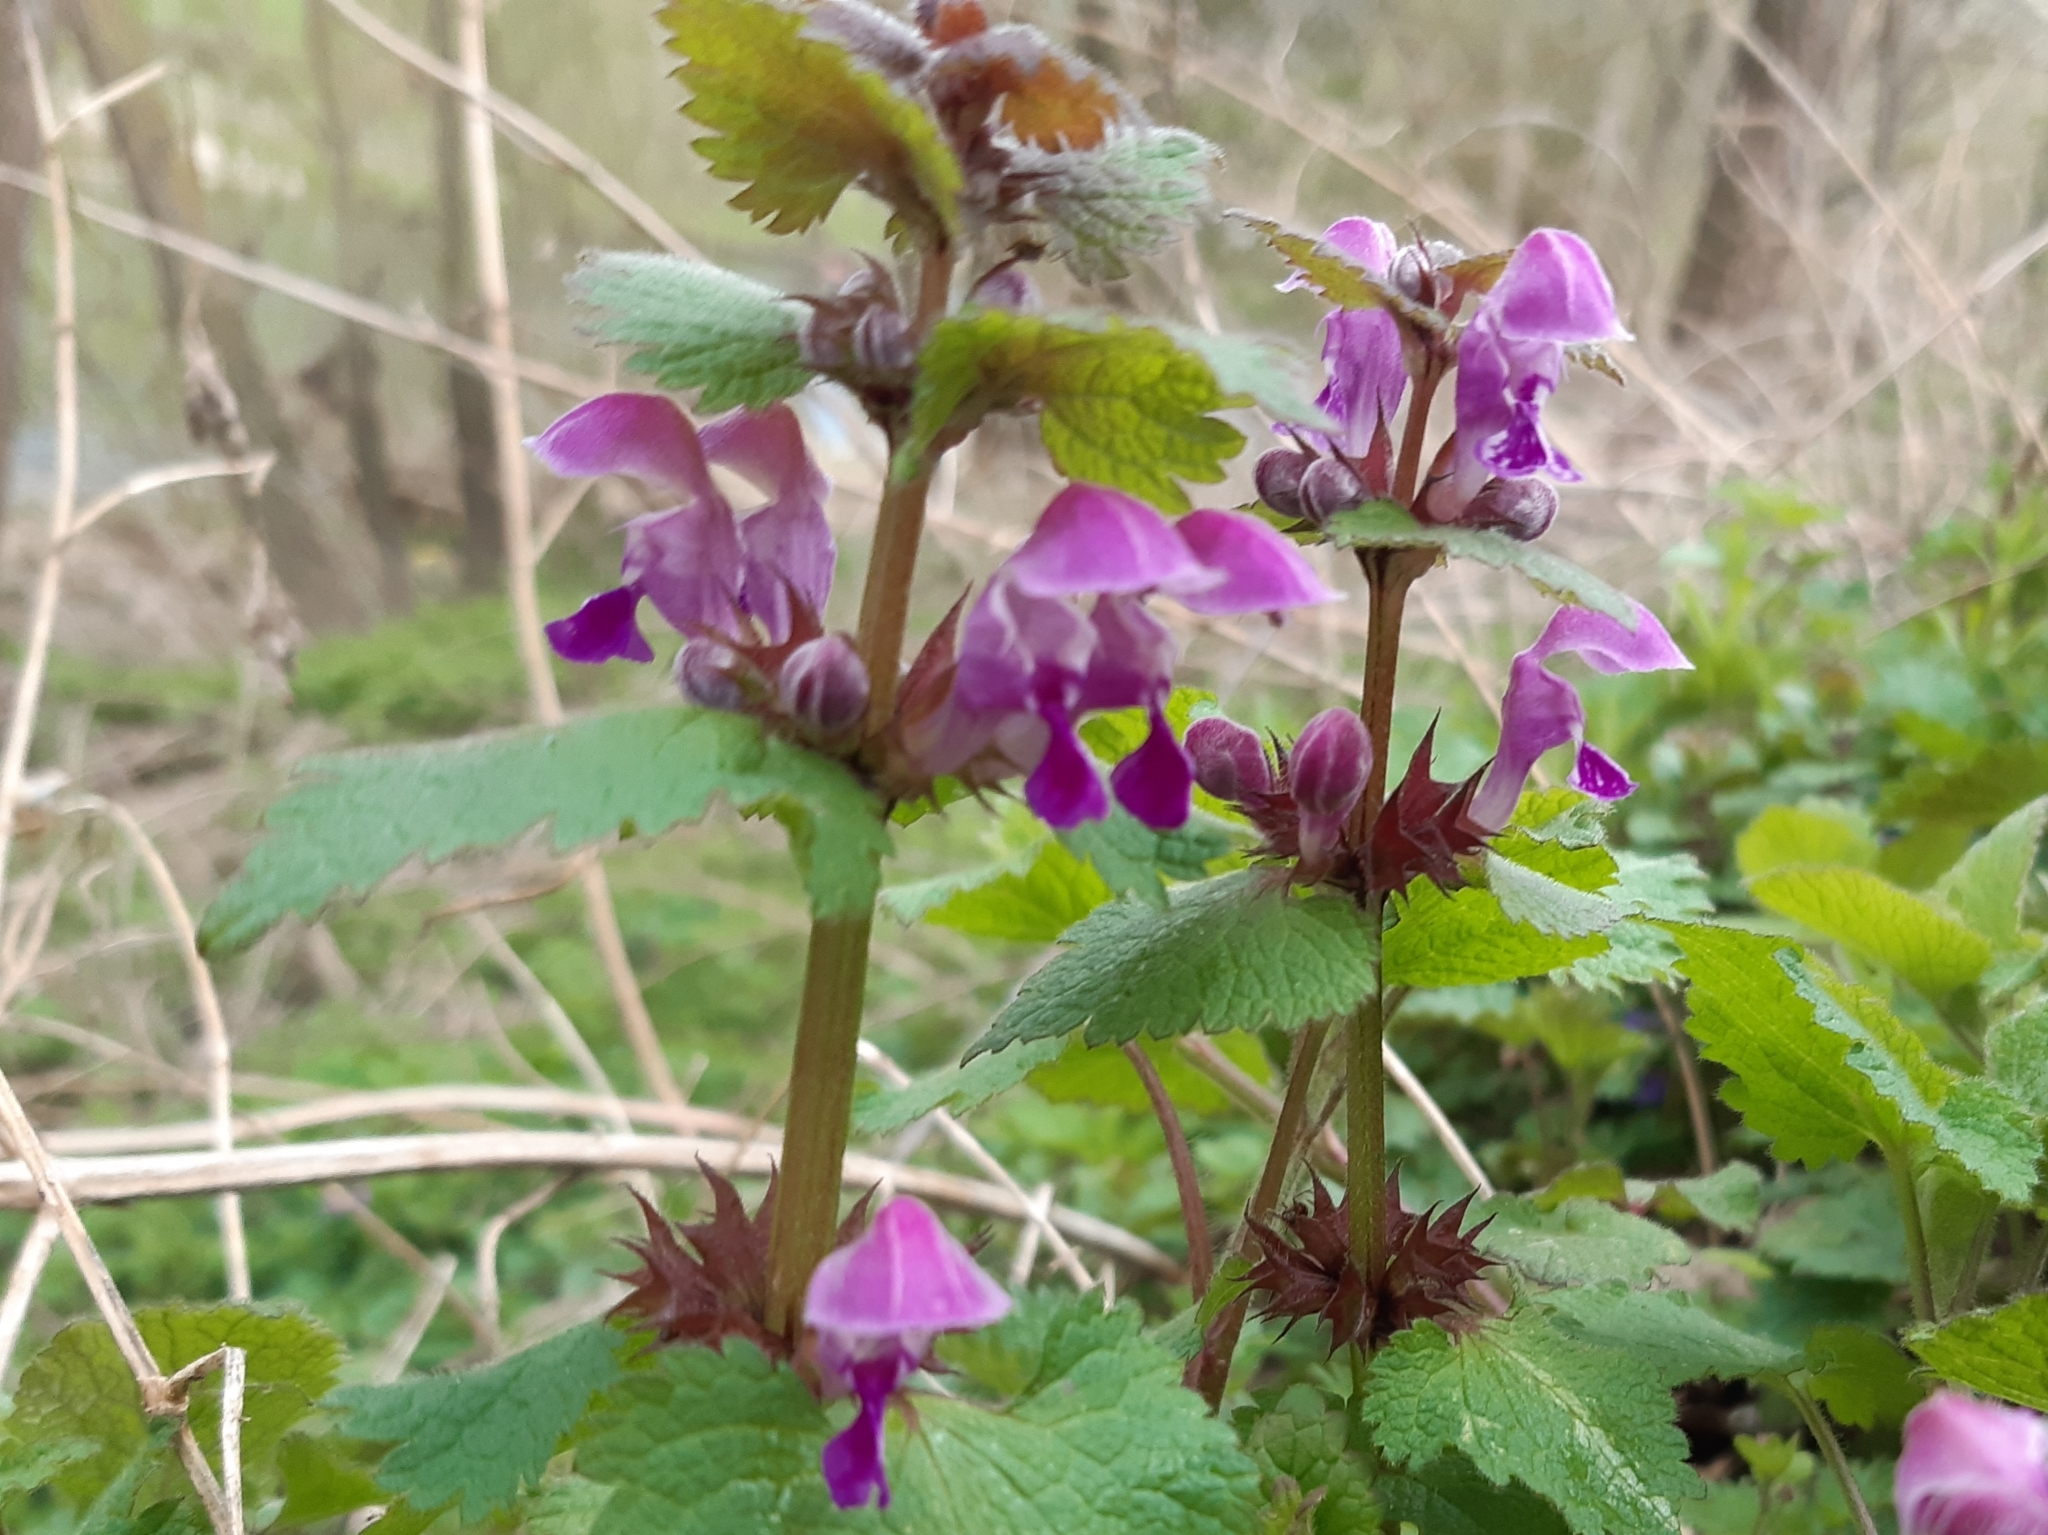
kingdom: Plantae
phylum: Tracheophyta
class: Magnoliopsida
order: Lamiales
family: Lamiaceae
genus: Lamium
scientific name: Lamium maculatum
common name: Spotted dead-nettle
